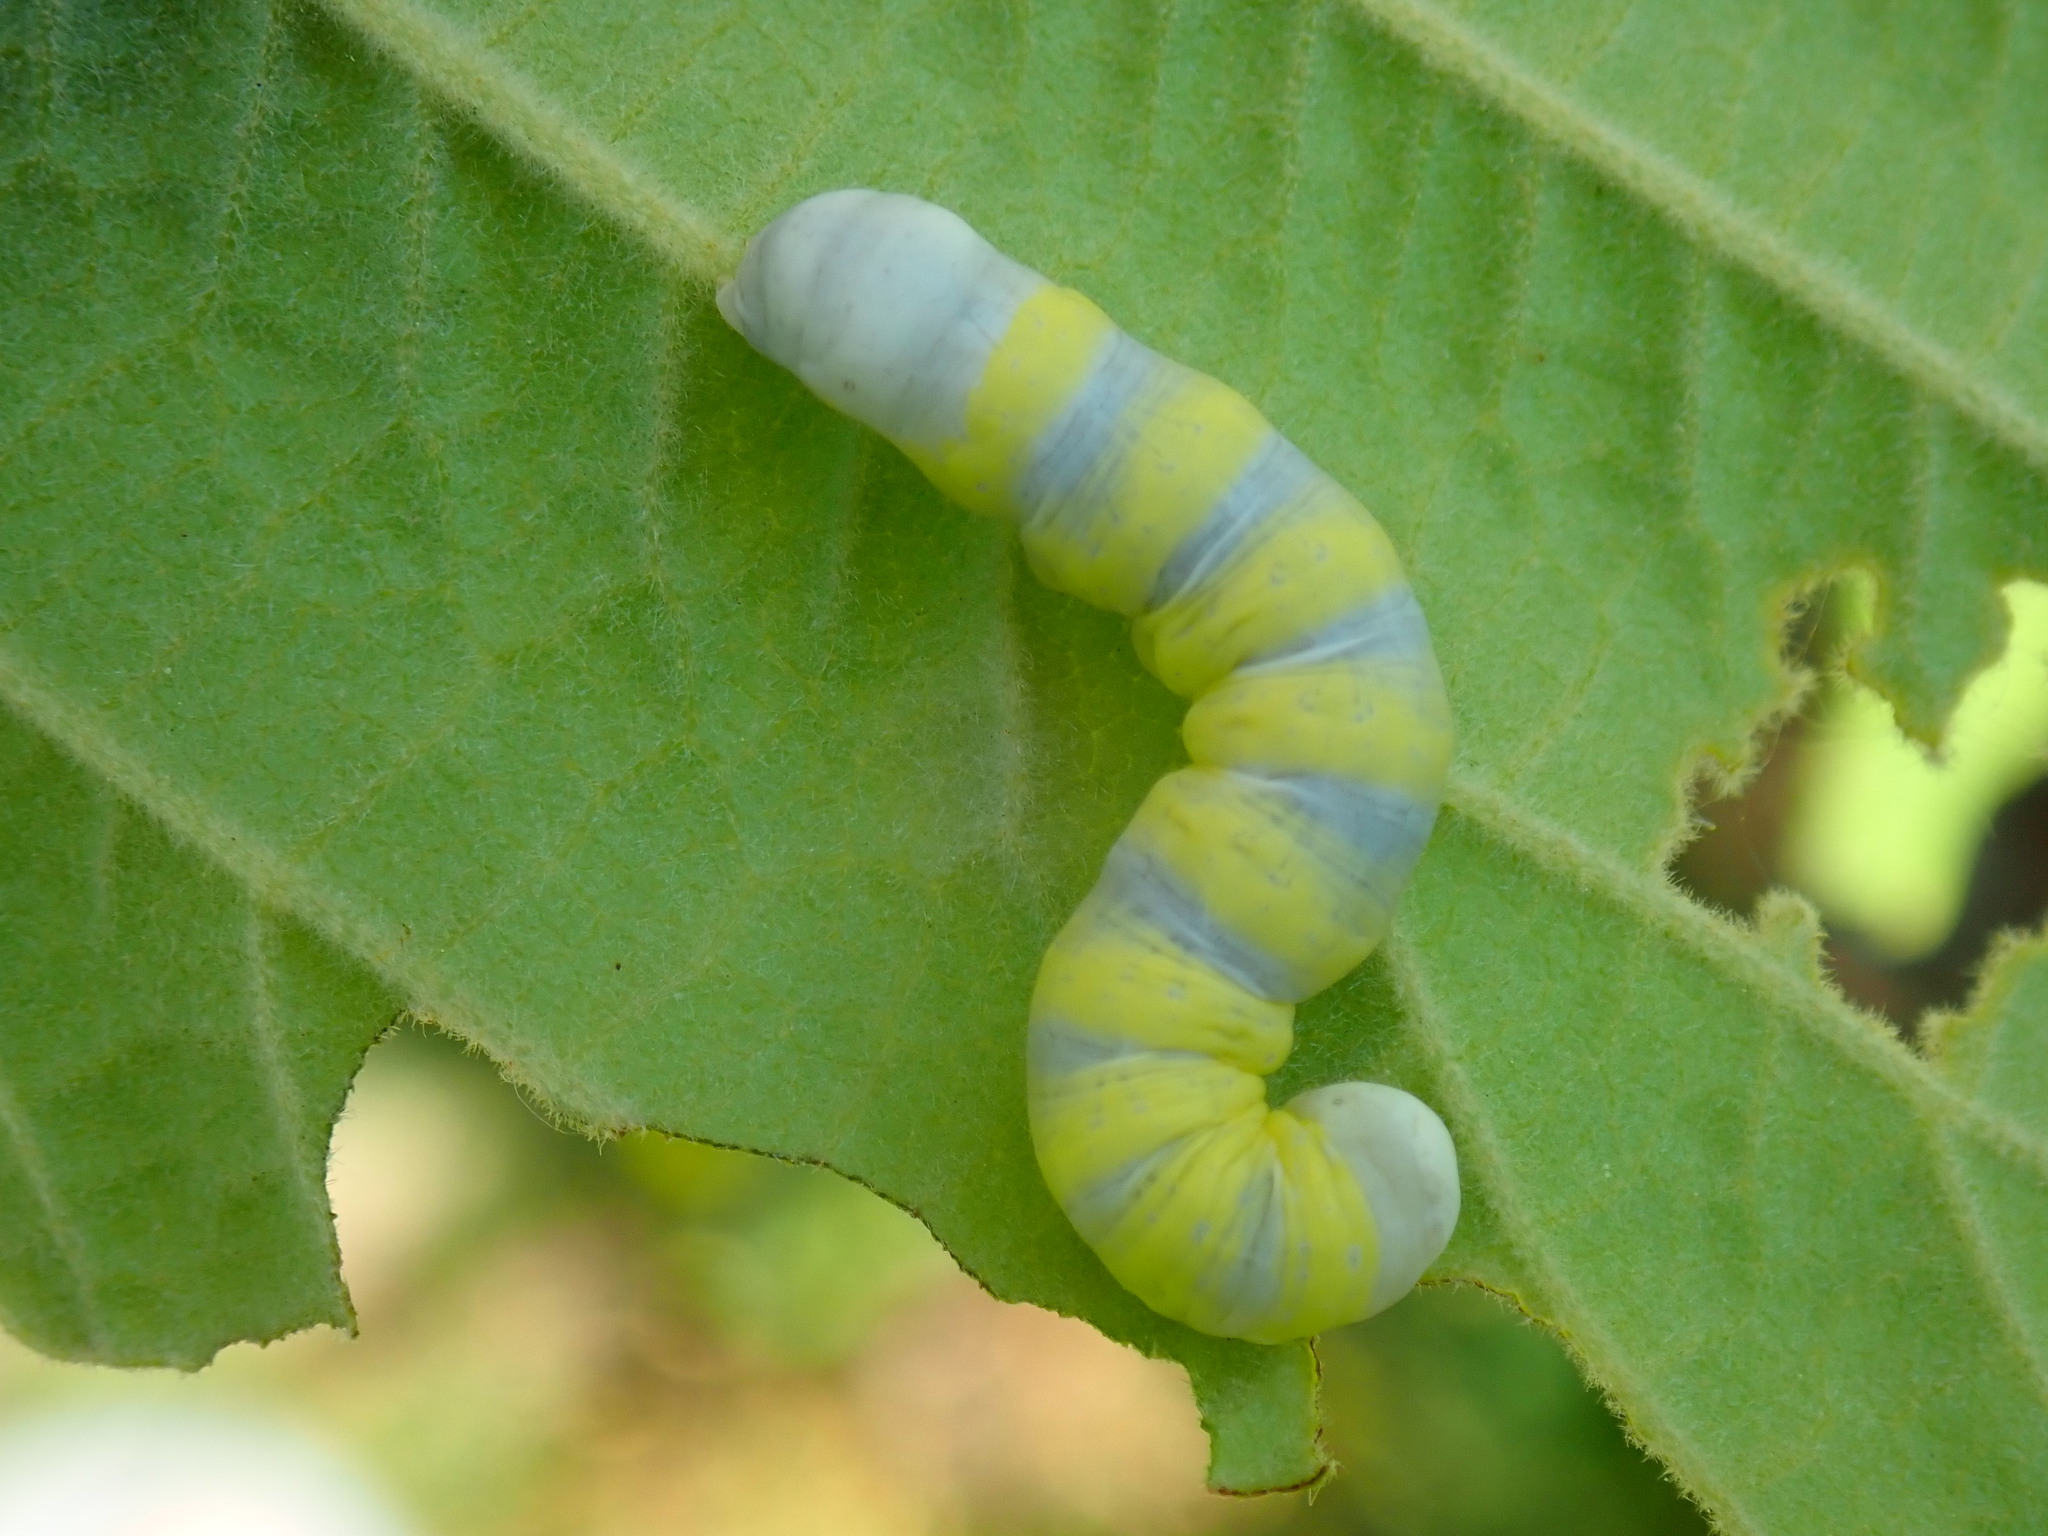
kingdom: Animalia
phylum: Arthropoda
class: Insecta
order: Lepidoptera
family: Noctuidae
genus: Pyreferra
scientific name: Pyreferra
